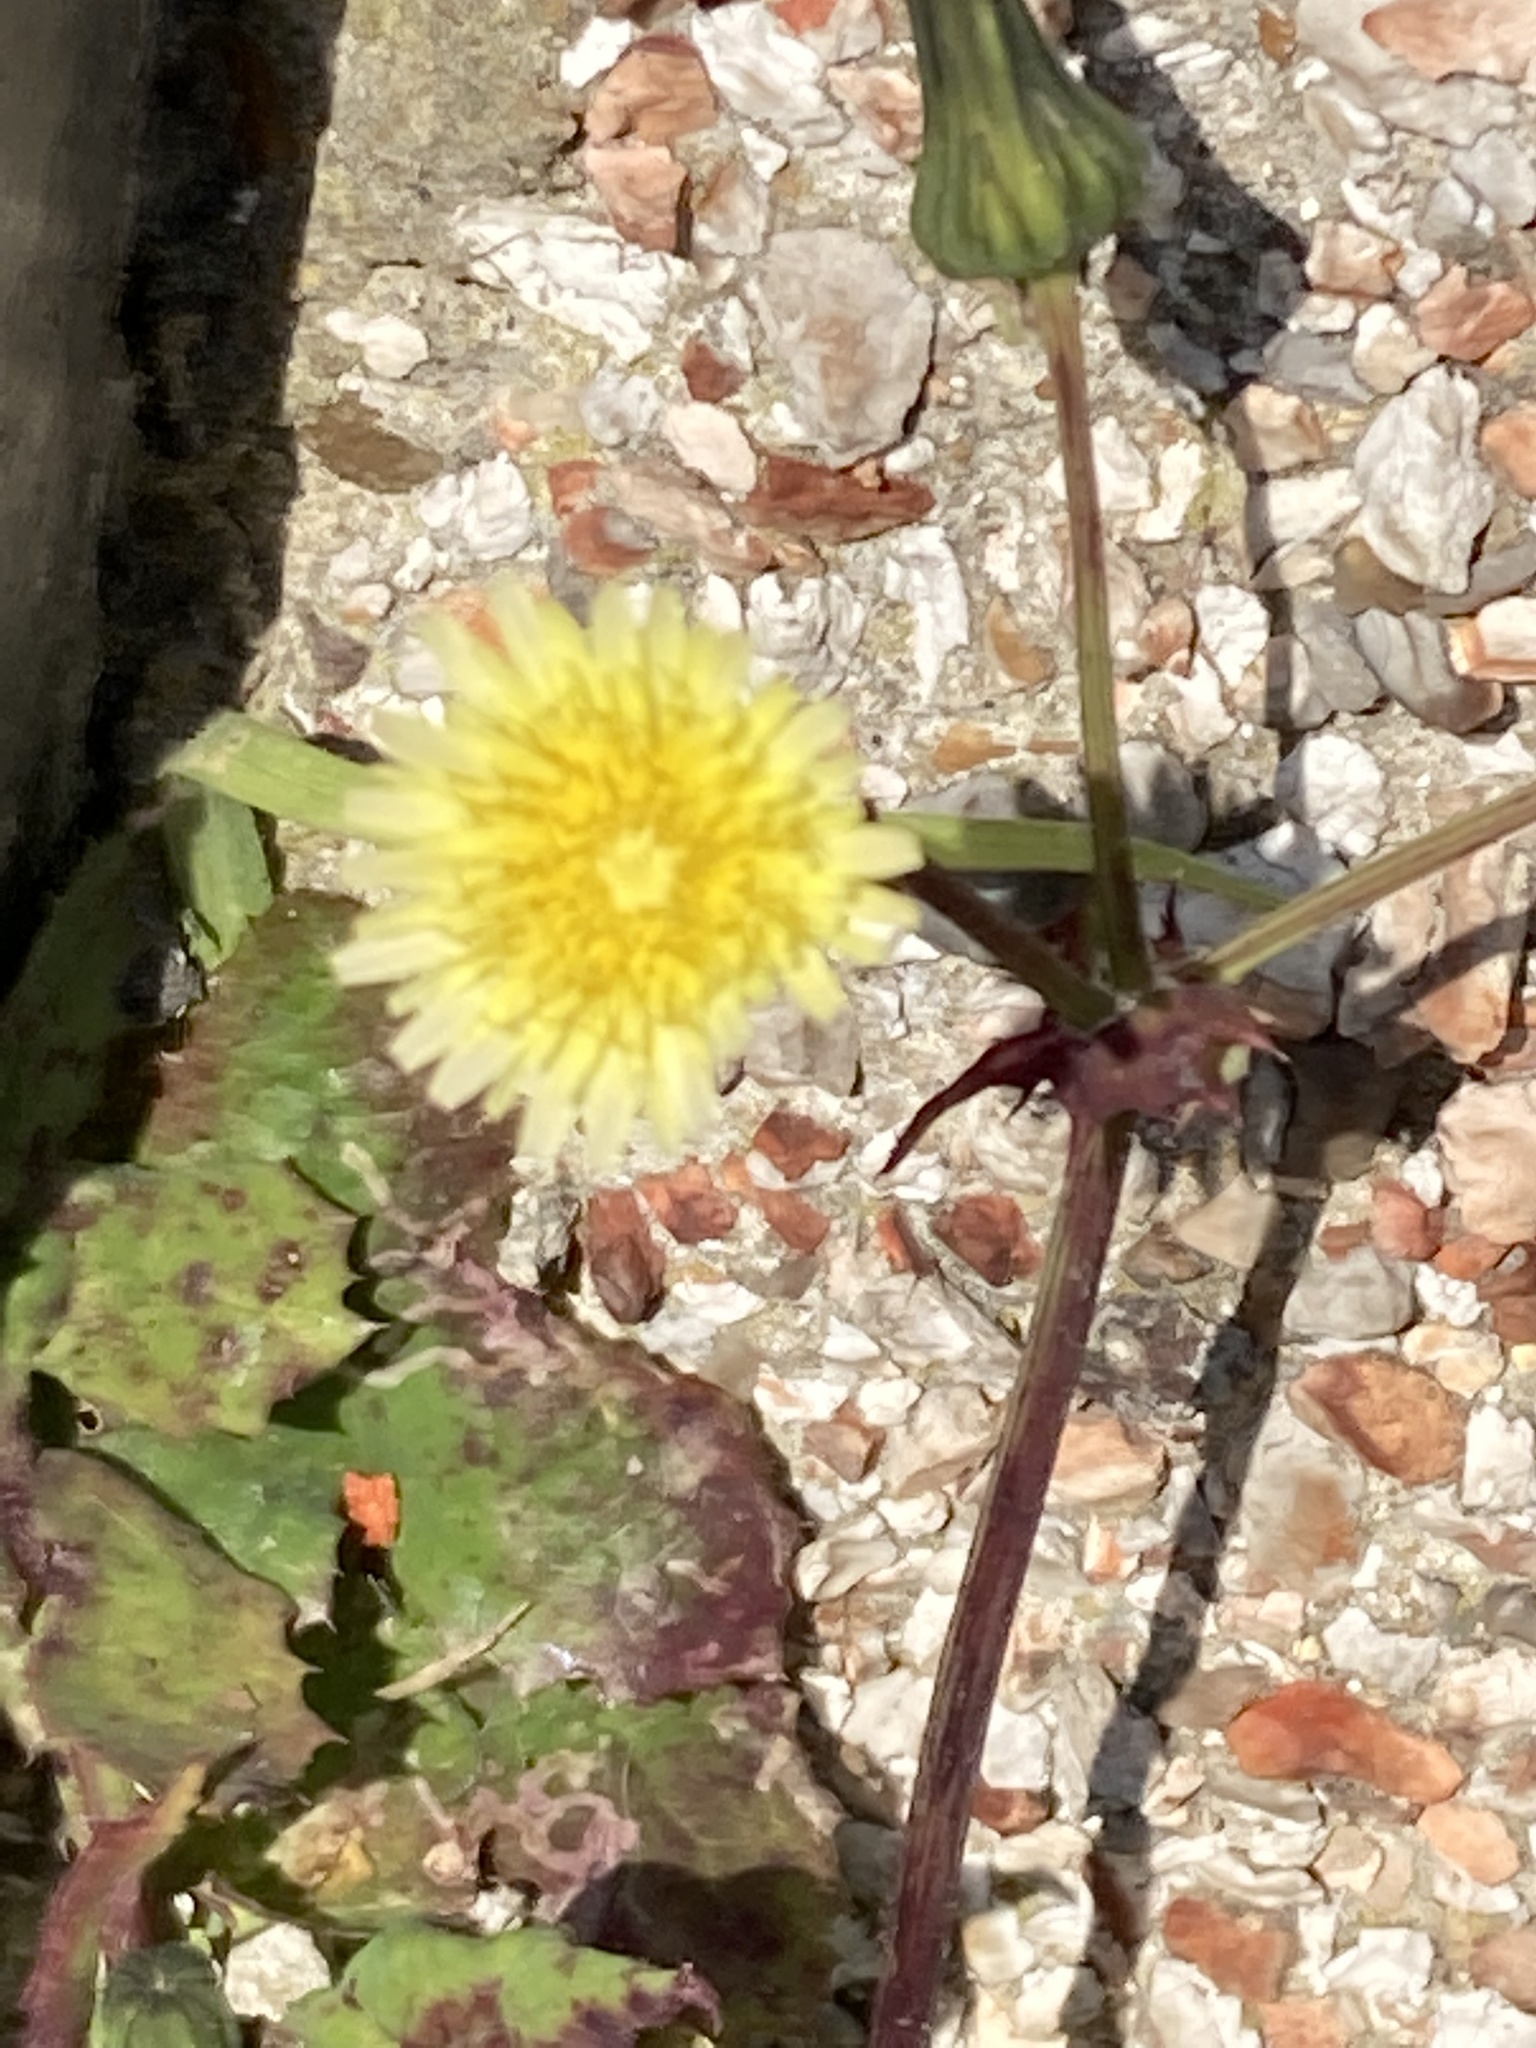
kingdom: Plantae
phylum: Tracheophyta
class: Magnoliopsida
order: Asterales
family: Asteraceae
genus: Sonchus
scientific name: Sonchus oleraceus
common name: Common sowthistle
